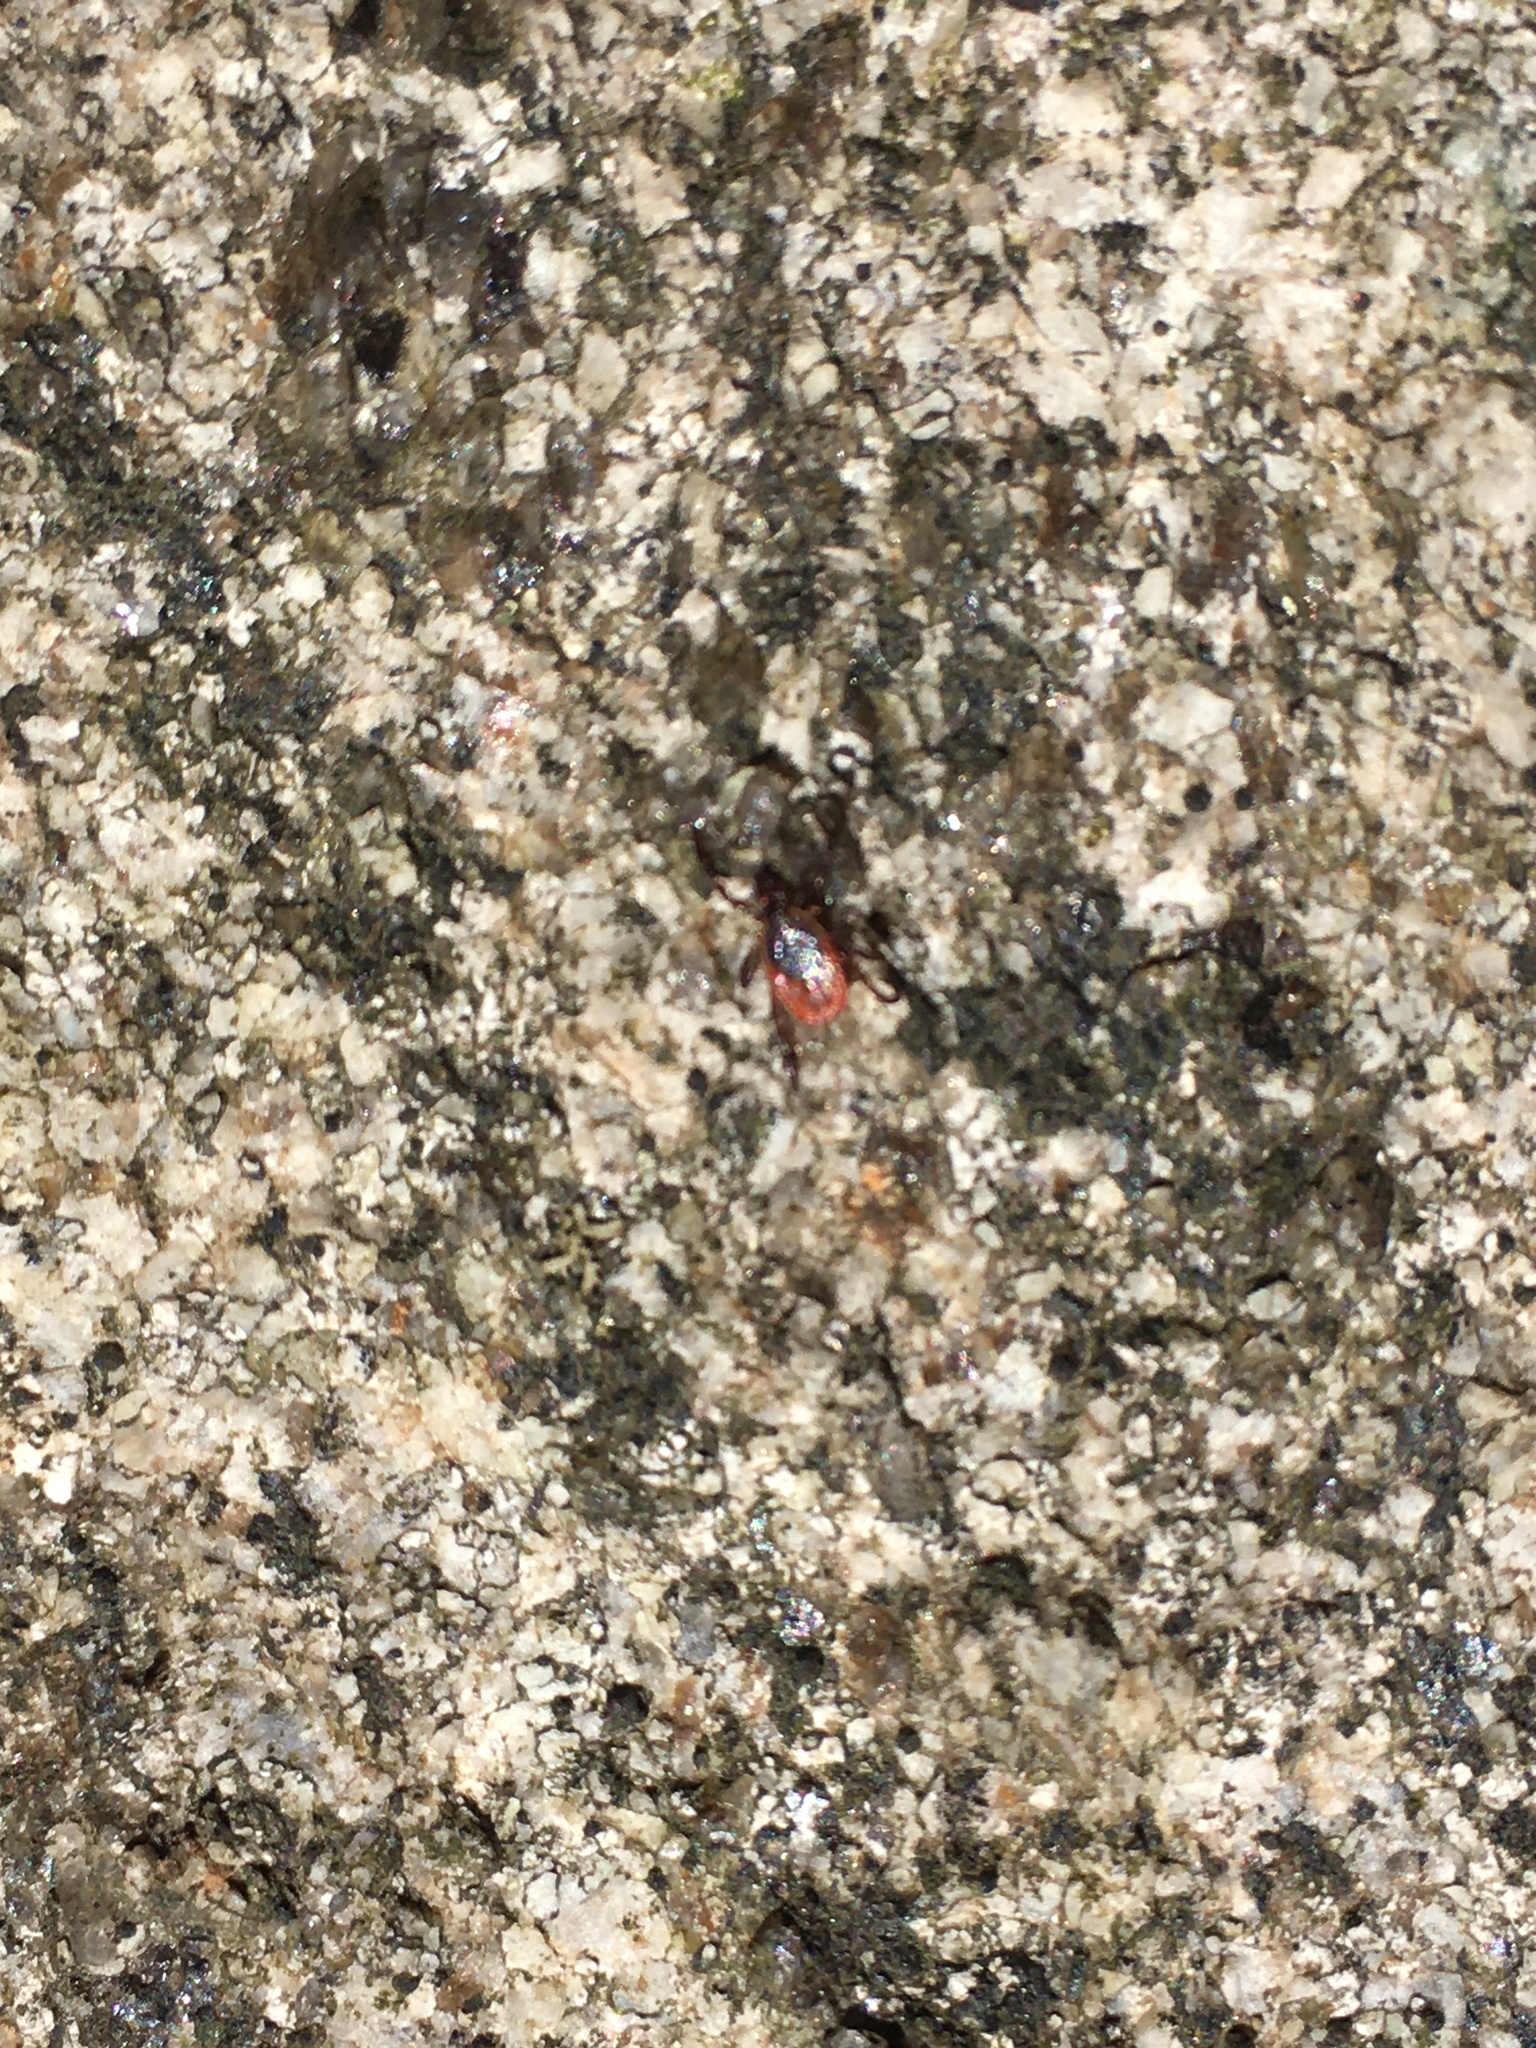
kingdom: Animalia
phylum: Arthropoda
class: Arachnida
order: Ixodida
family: Ixodidae
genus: Ixodes
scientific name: Ixodes scapularis
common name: Black legged tick
